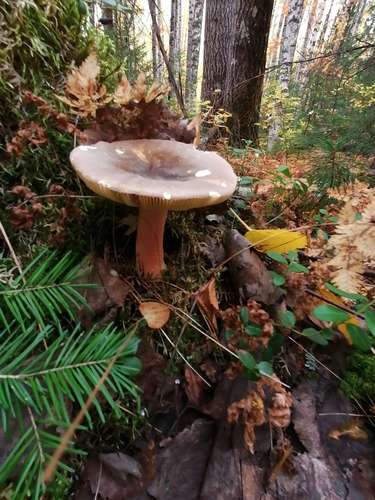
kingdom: Fungi
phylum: Basidiomycota
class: Agaricomycetes
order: Russulales
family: Russulaceae
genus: Russula
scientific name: Russula
